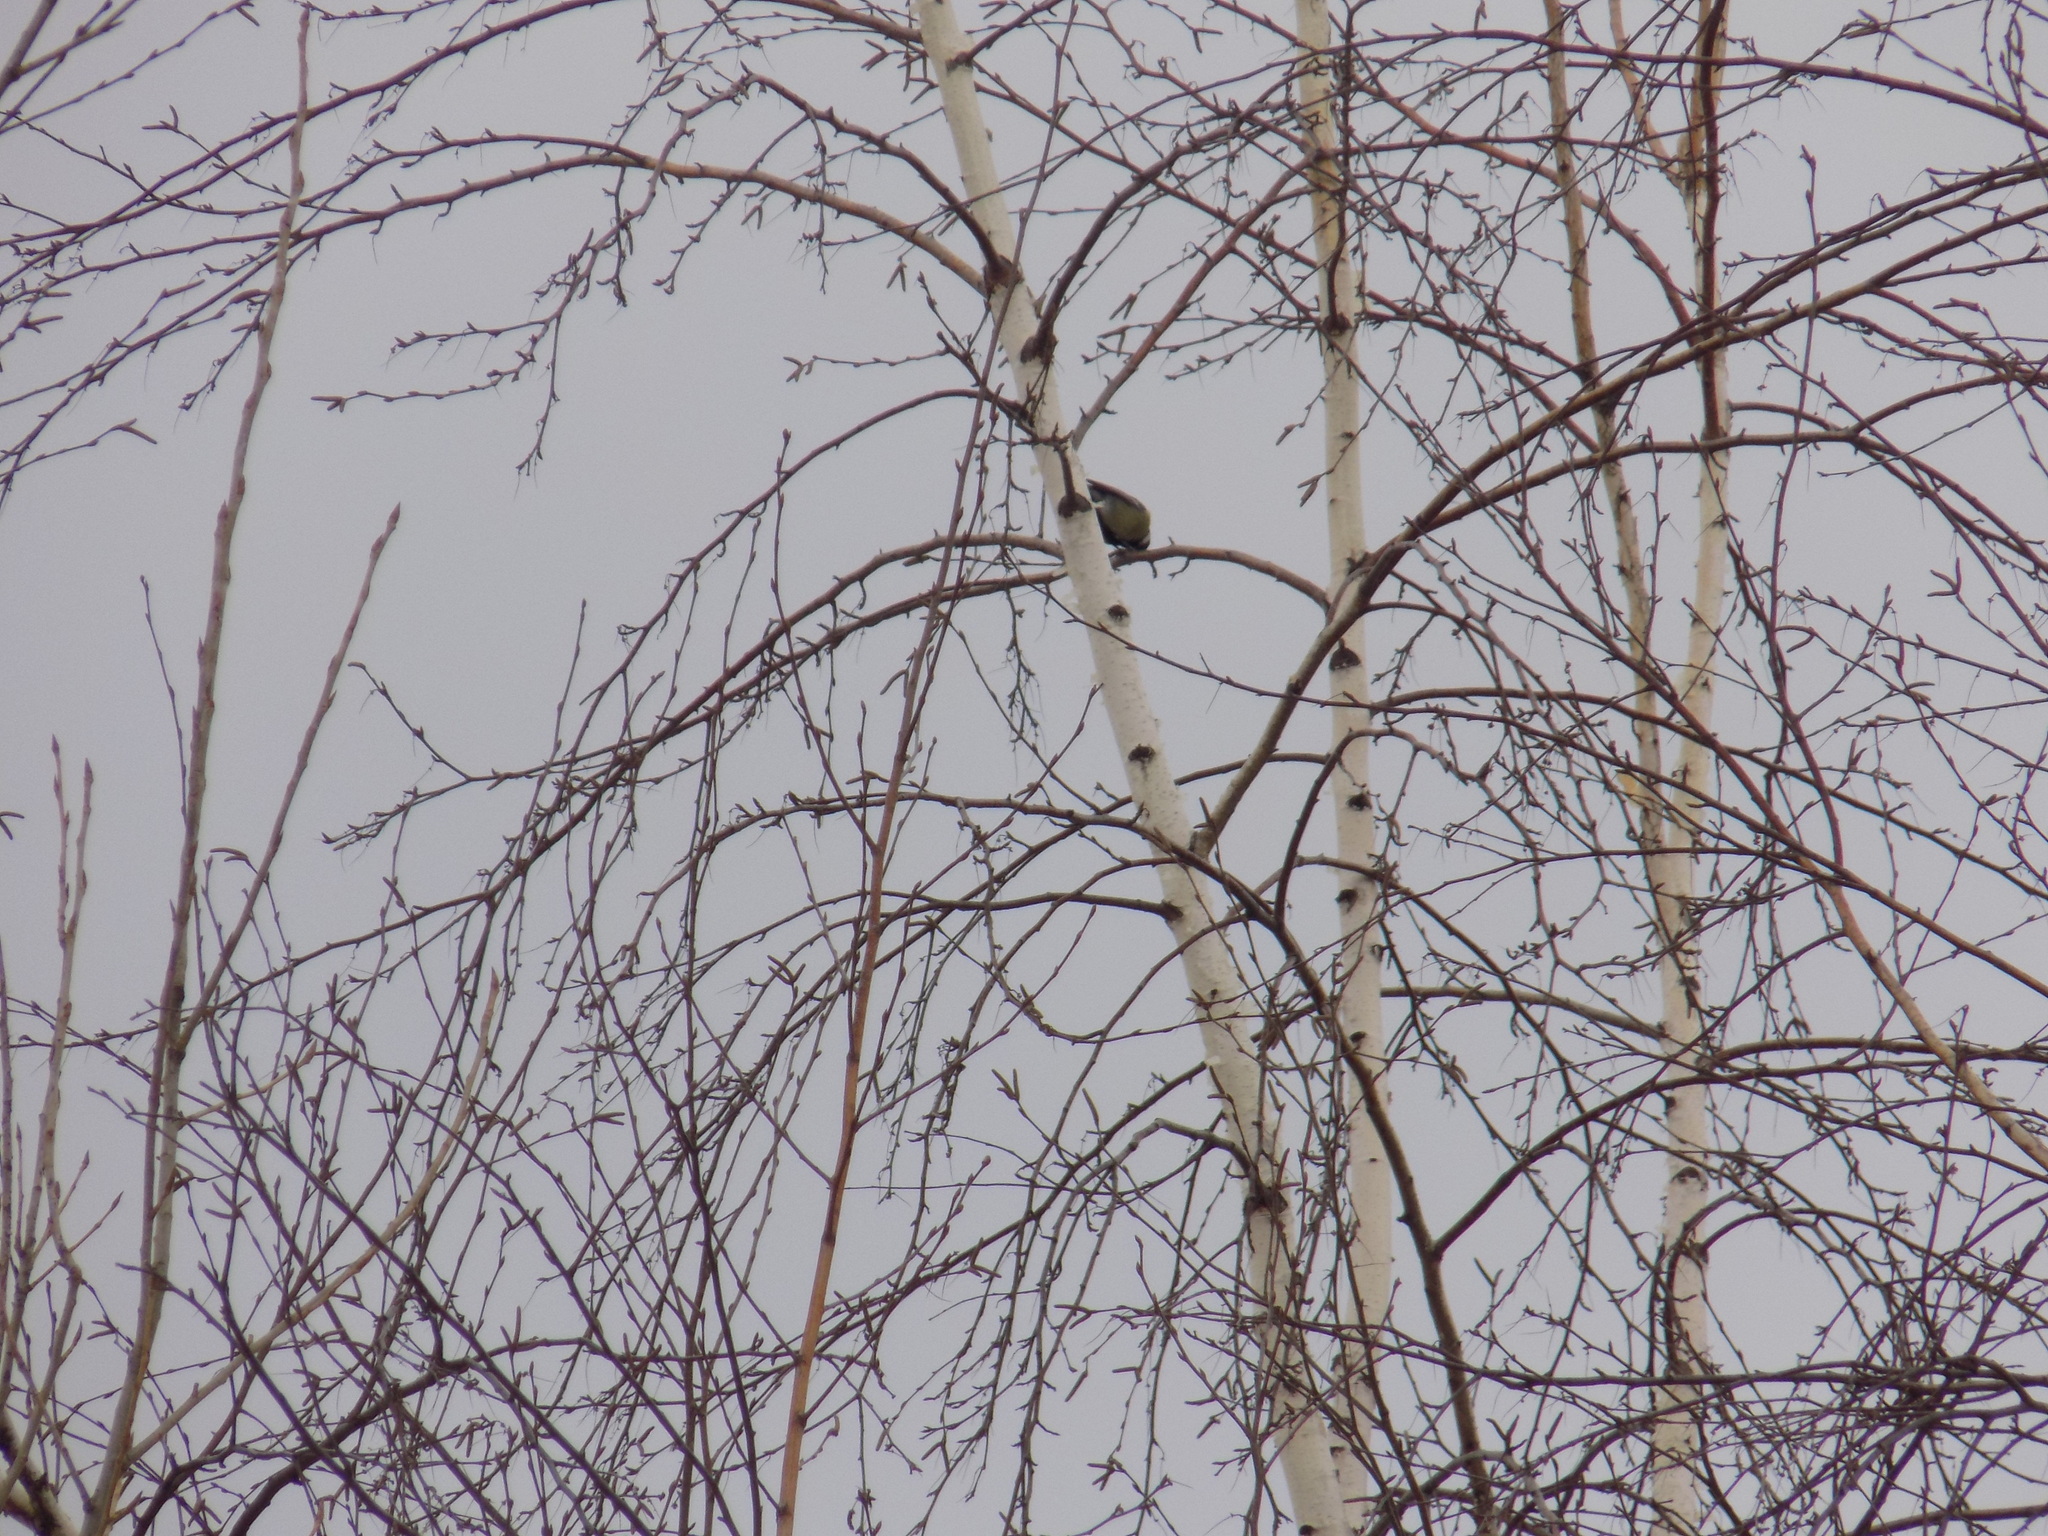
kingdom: Animalia
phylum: Chordata
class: Aves
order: Passeriformes
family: Paridae
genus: Parus
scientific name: Parus major
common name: Great tit
